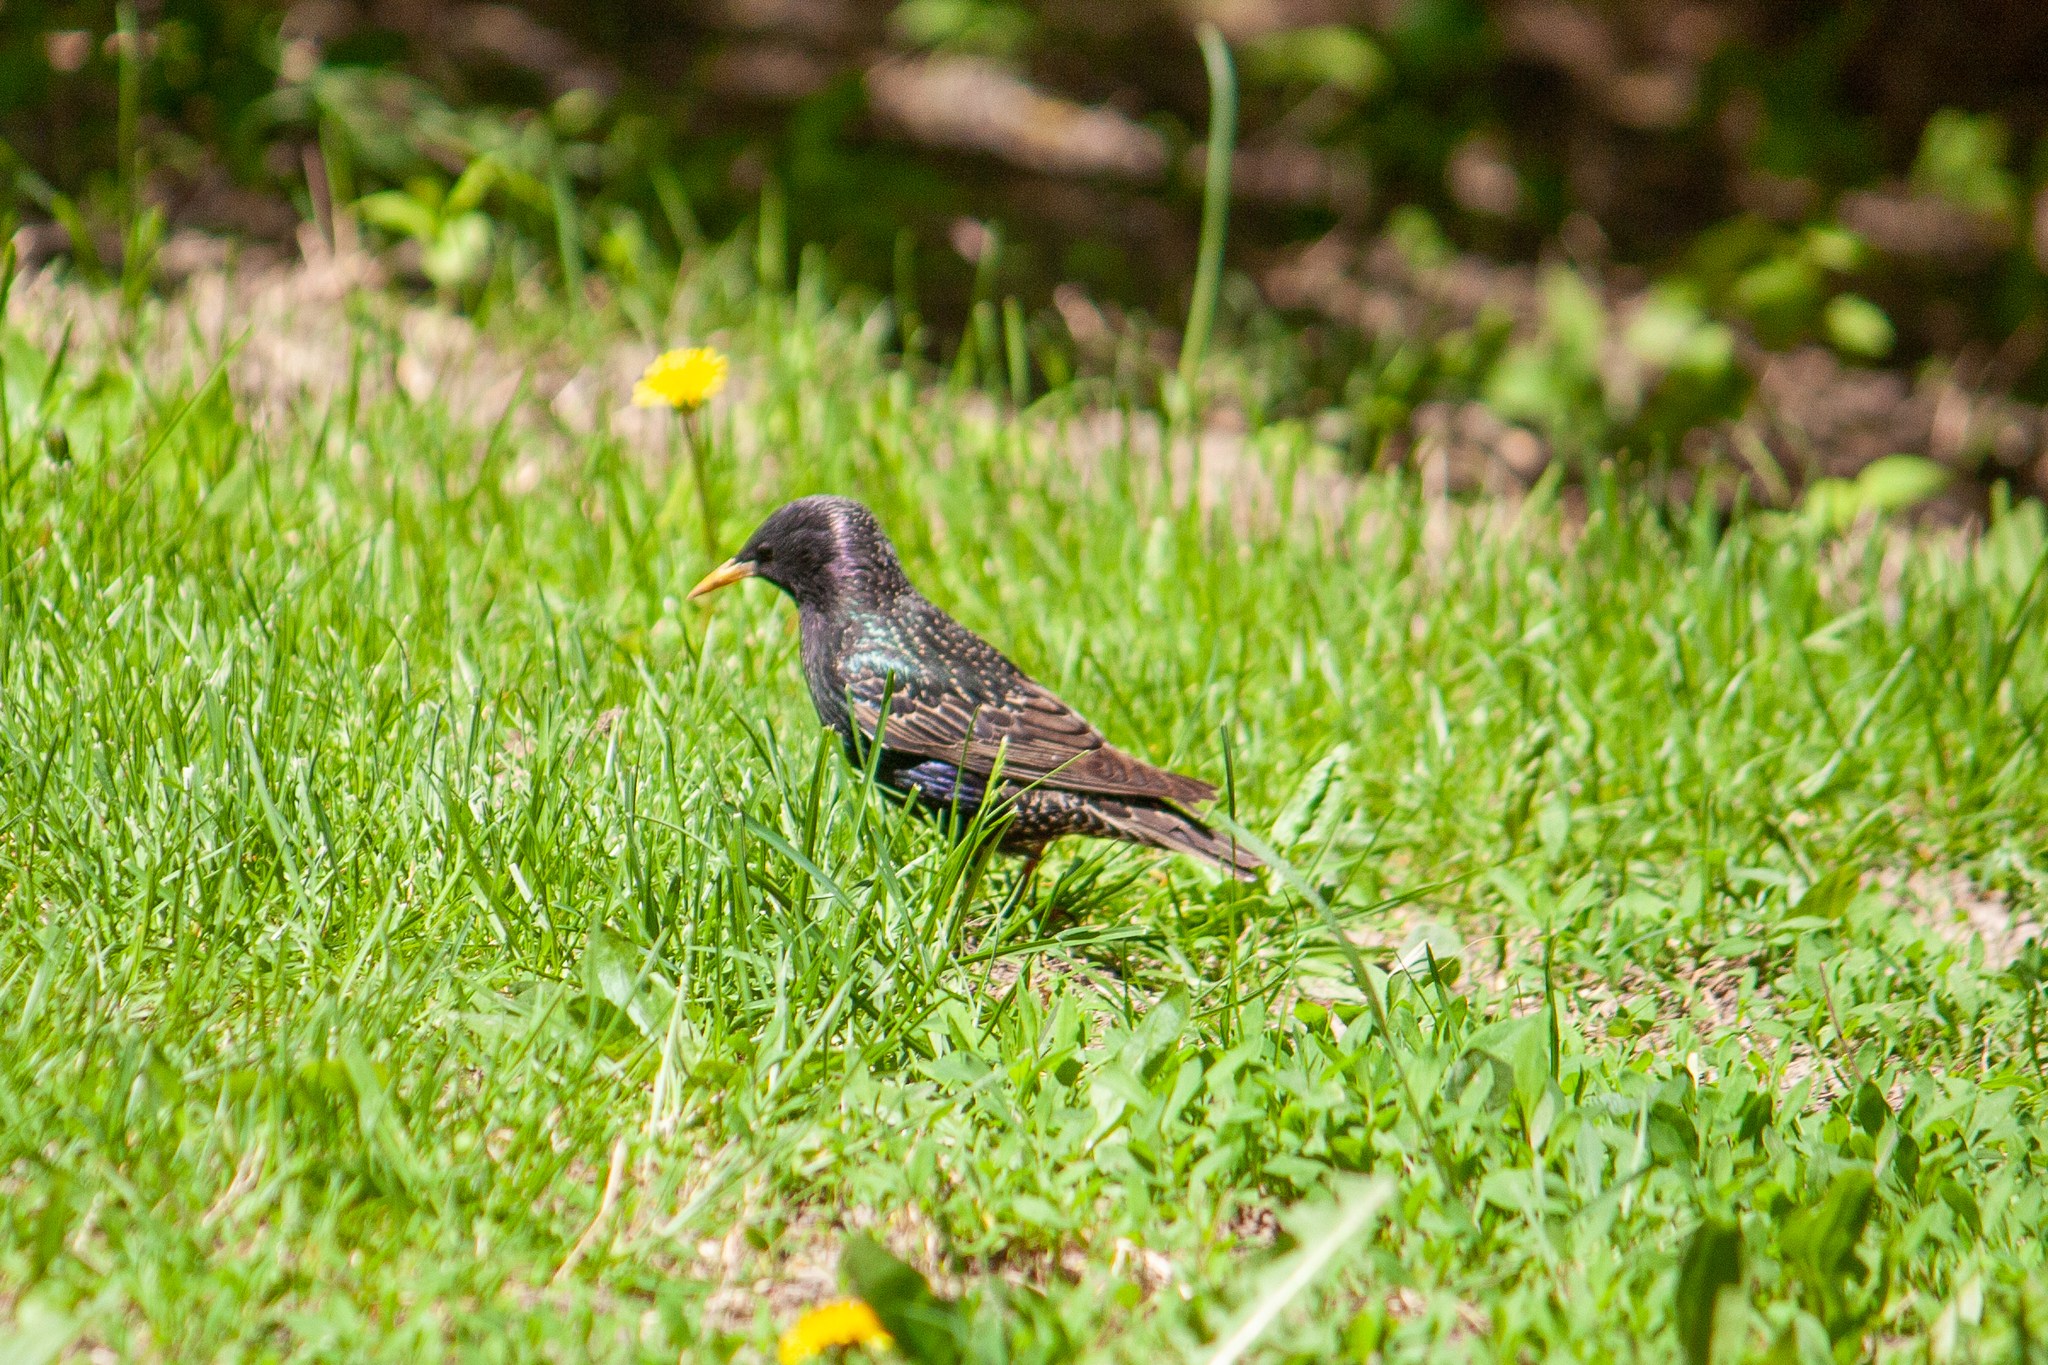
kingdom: Animalia
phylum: Chordata
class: Aves
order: Passeriformes
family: Sturnidae
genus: Sturnus
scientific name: Sturnus vulgaris
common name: Common starling
